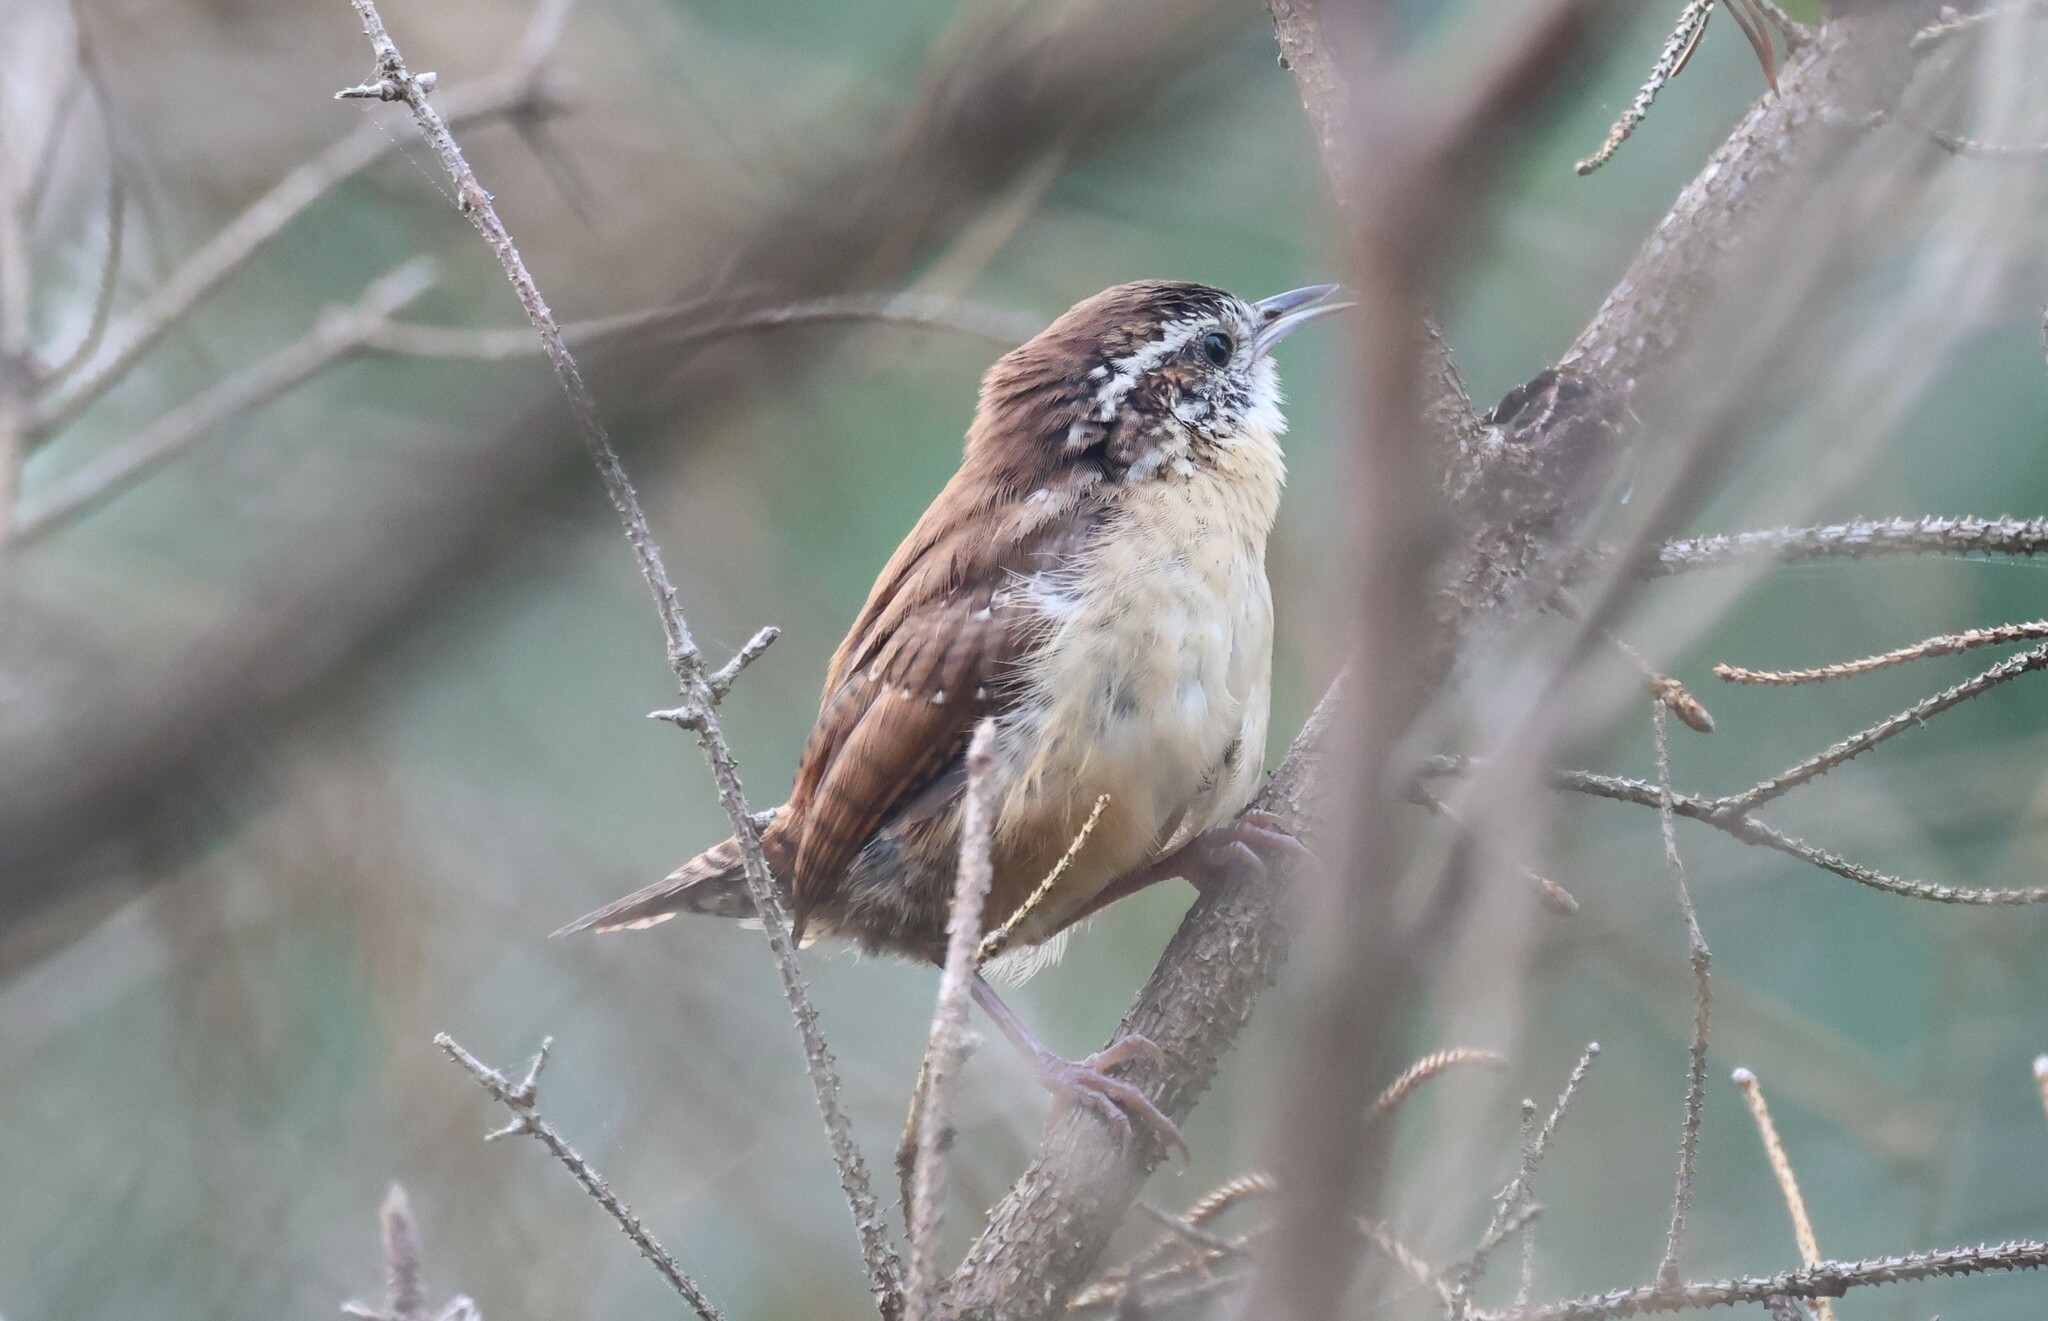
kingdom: Animalia
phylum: Chordata
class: Aves
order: Passeriformes
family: Troglodytidae
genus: Thryothorus
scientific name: Thryothorus ludovicianus
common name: Carolina wren
